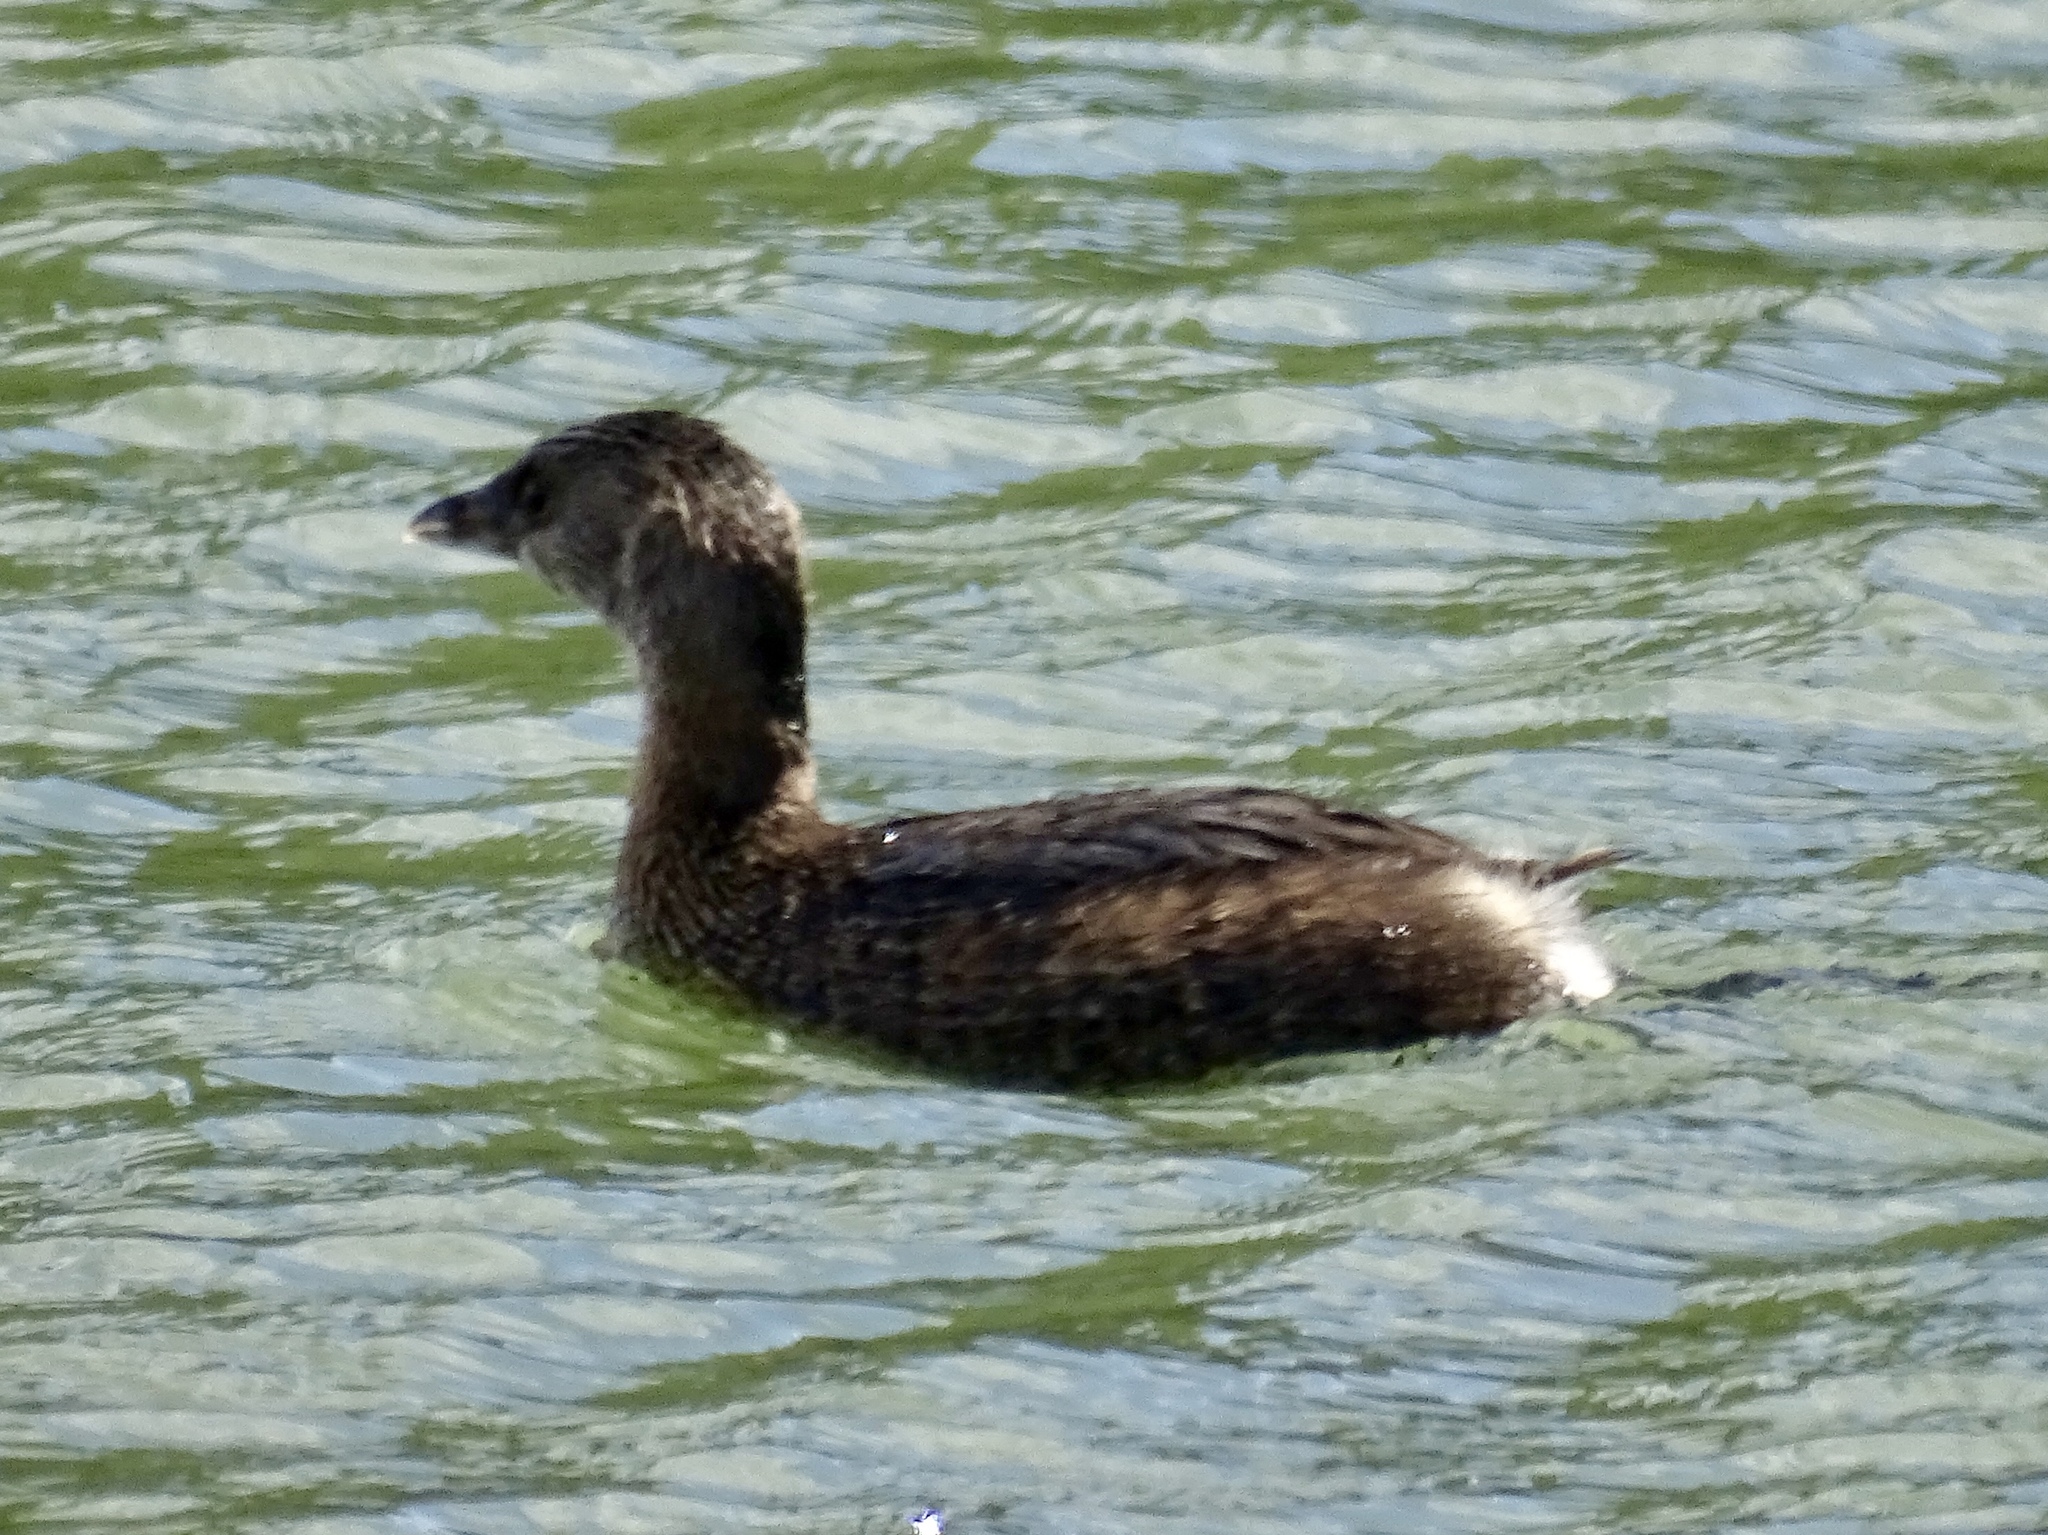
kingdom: Animalia
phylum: Chordata
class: Aves
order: Podicipediformes
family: Podicipedidae
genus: Podilymbus
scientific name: Podilymbus podiceps
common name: Pied-billed grebe
